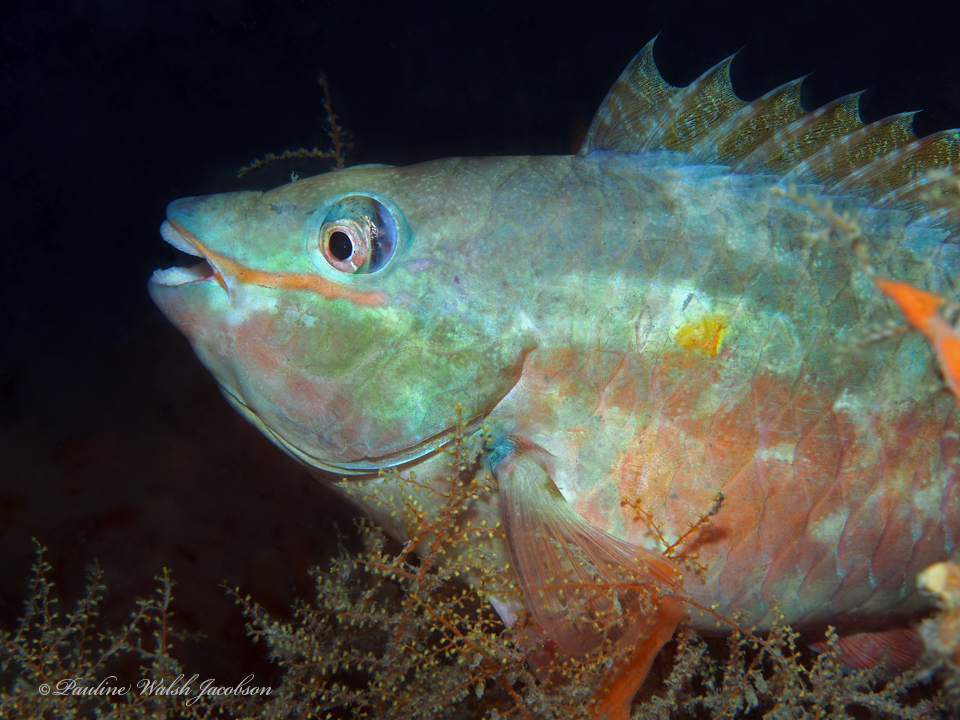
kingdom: Animalia
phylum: Chordata
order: Perciformes
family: Scaridae
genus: Sparisoma
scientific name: Sparisoma aurofrenatum
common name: Redband parrotfish
